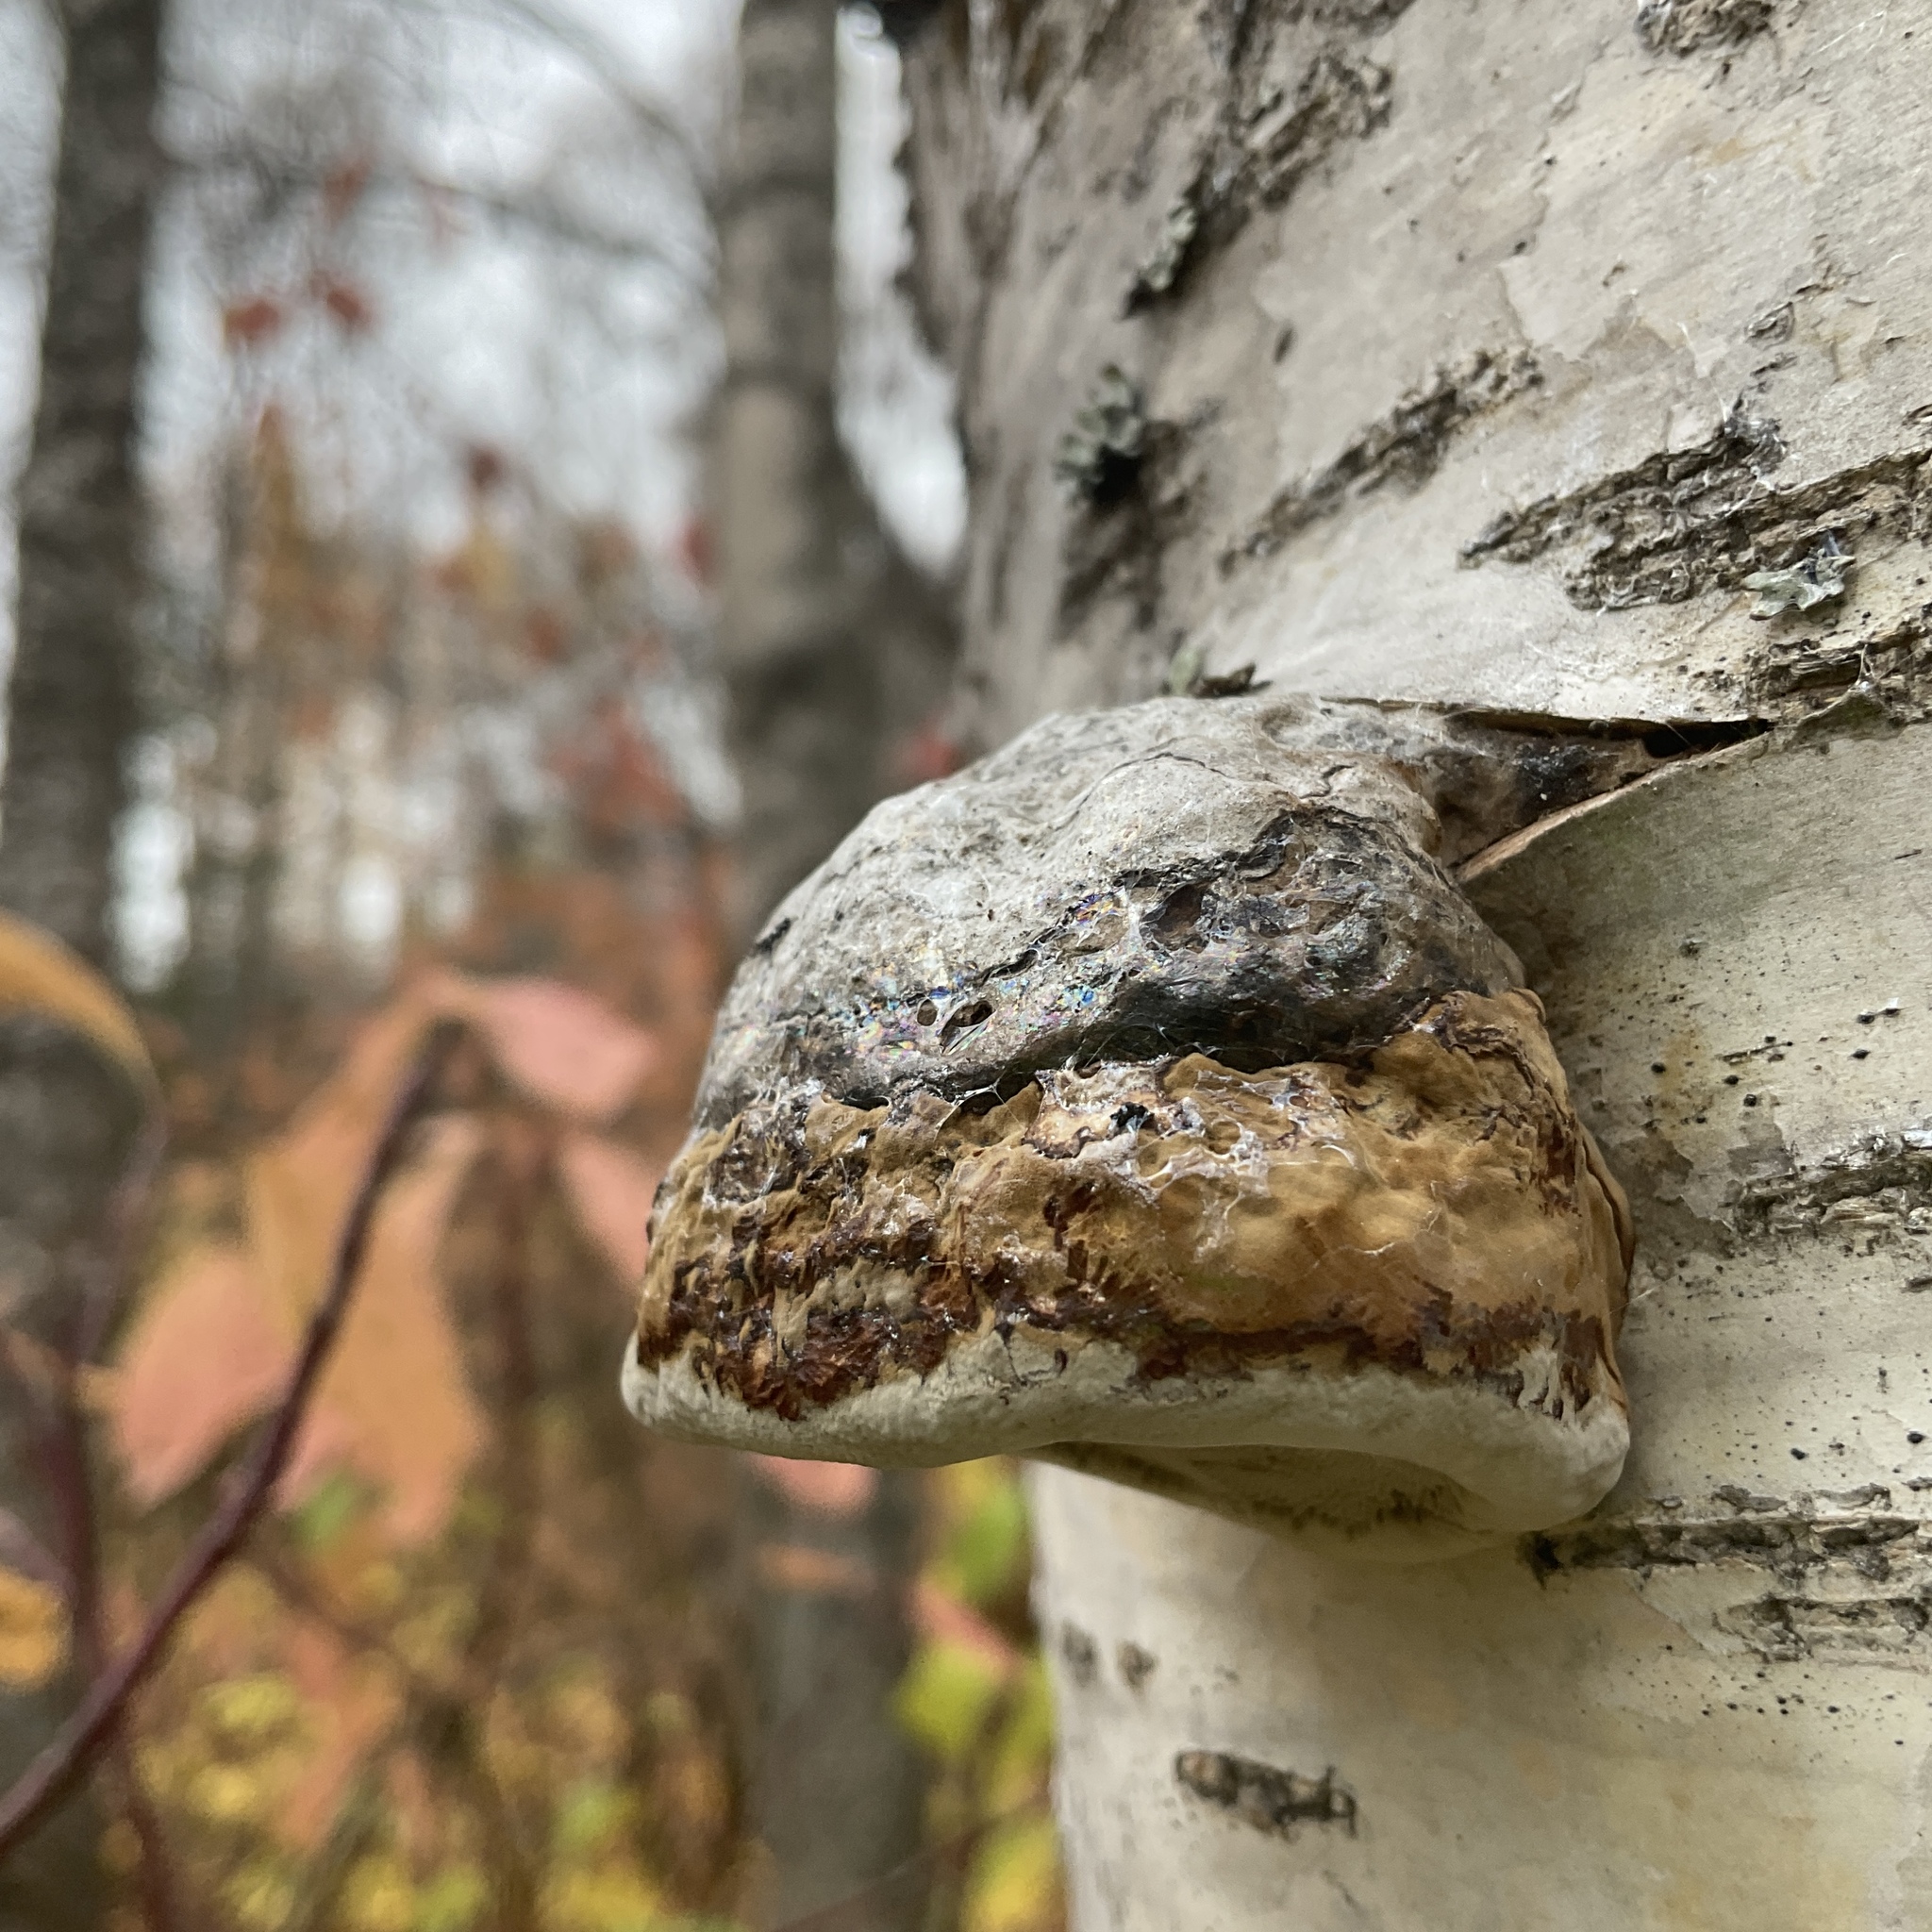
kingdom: Fungi
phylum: Basidiomycota
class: Agaricomycetes
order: Polyporales
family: Polyporaceae
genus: Fomes
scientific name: Fomes fomentarius
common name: Hoof fungus
